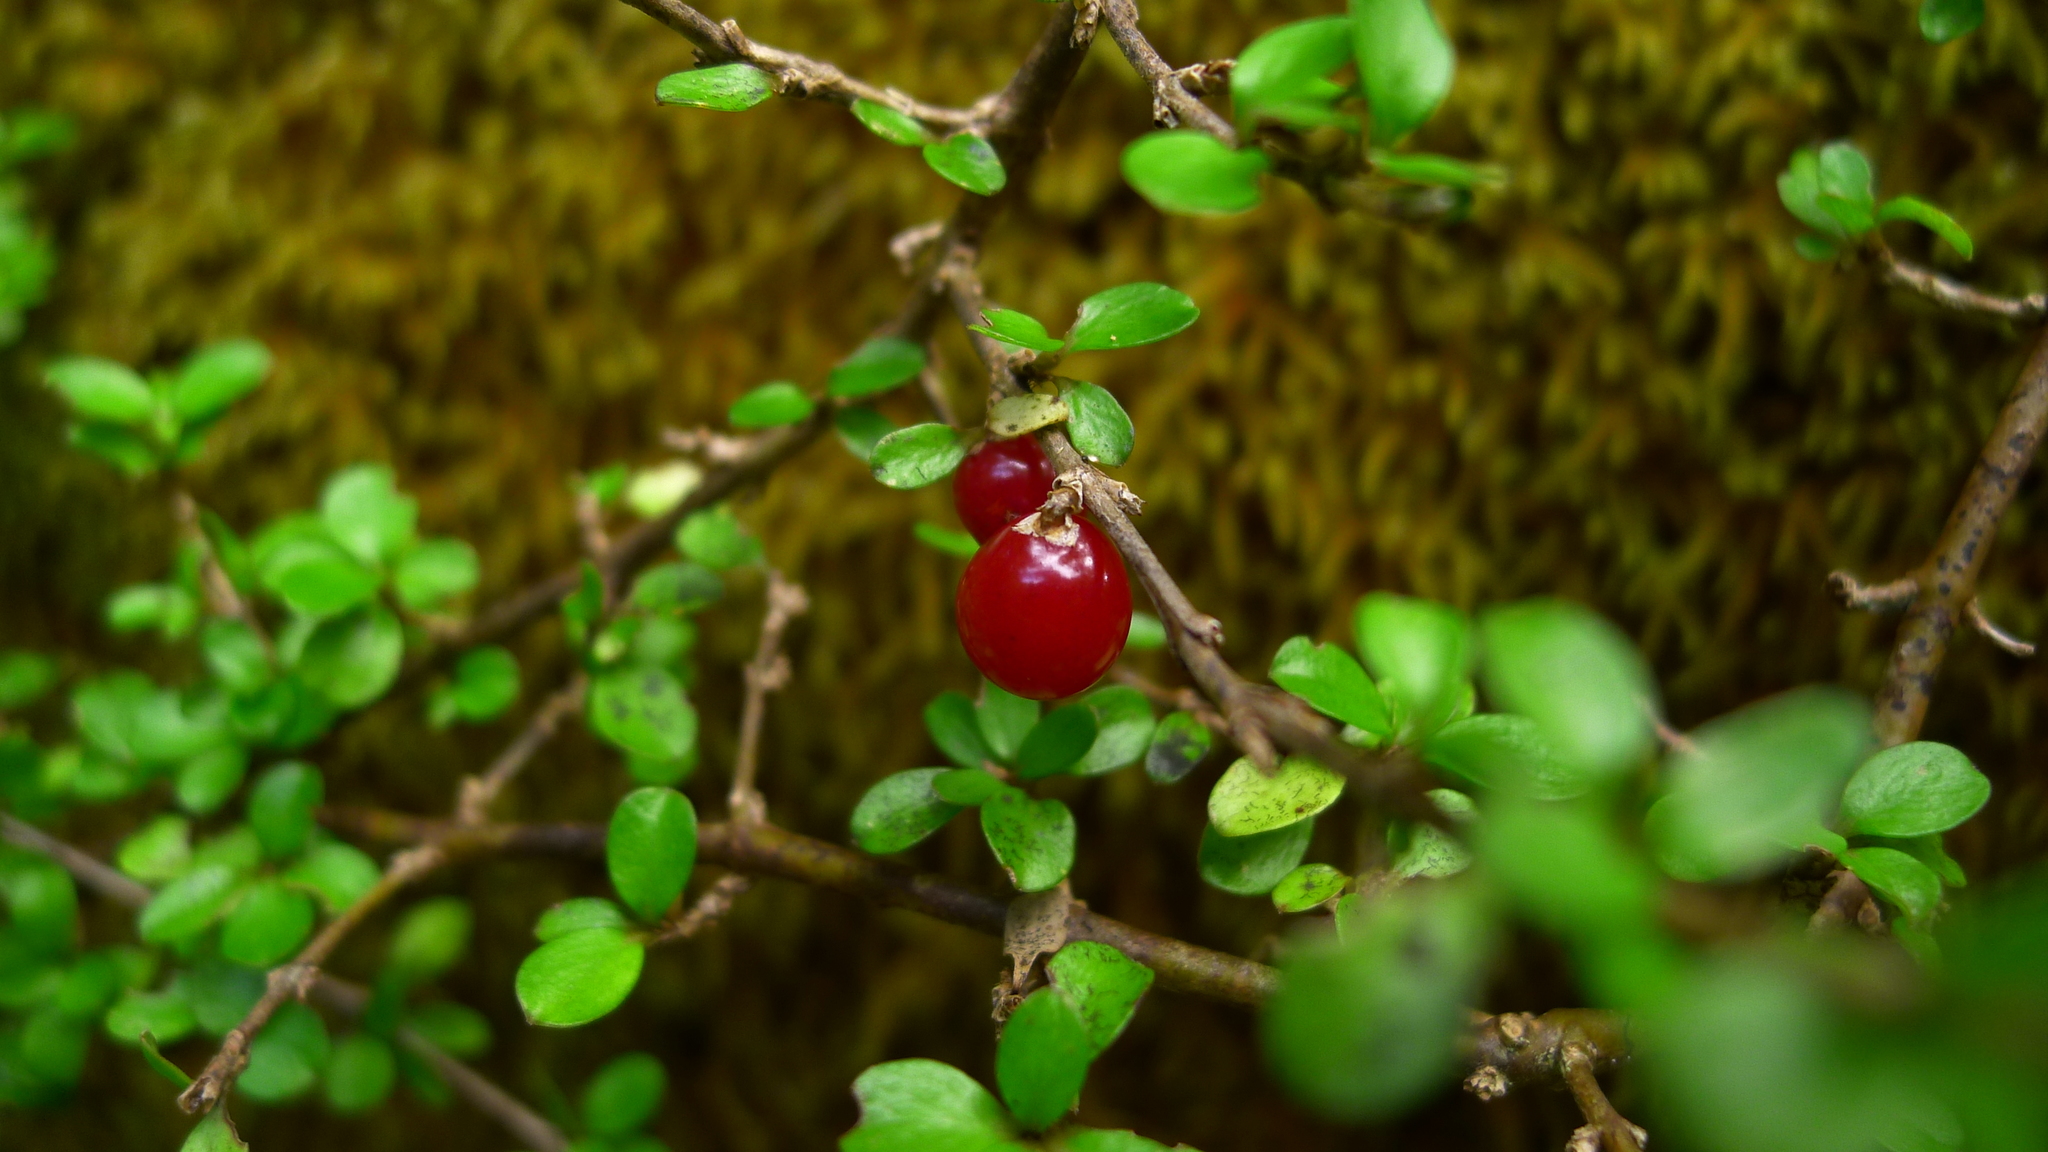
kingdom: Plantae
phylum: Tracheophyta
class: Magnoliopsida
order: Gentianales
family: Rubiaceae
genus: Coprosma
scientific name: Coprosma depressa
